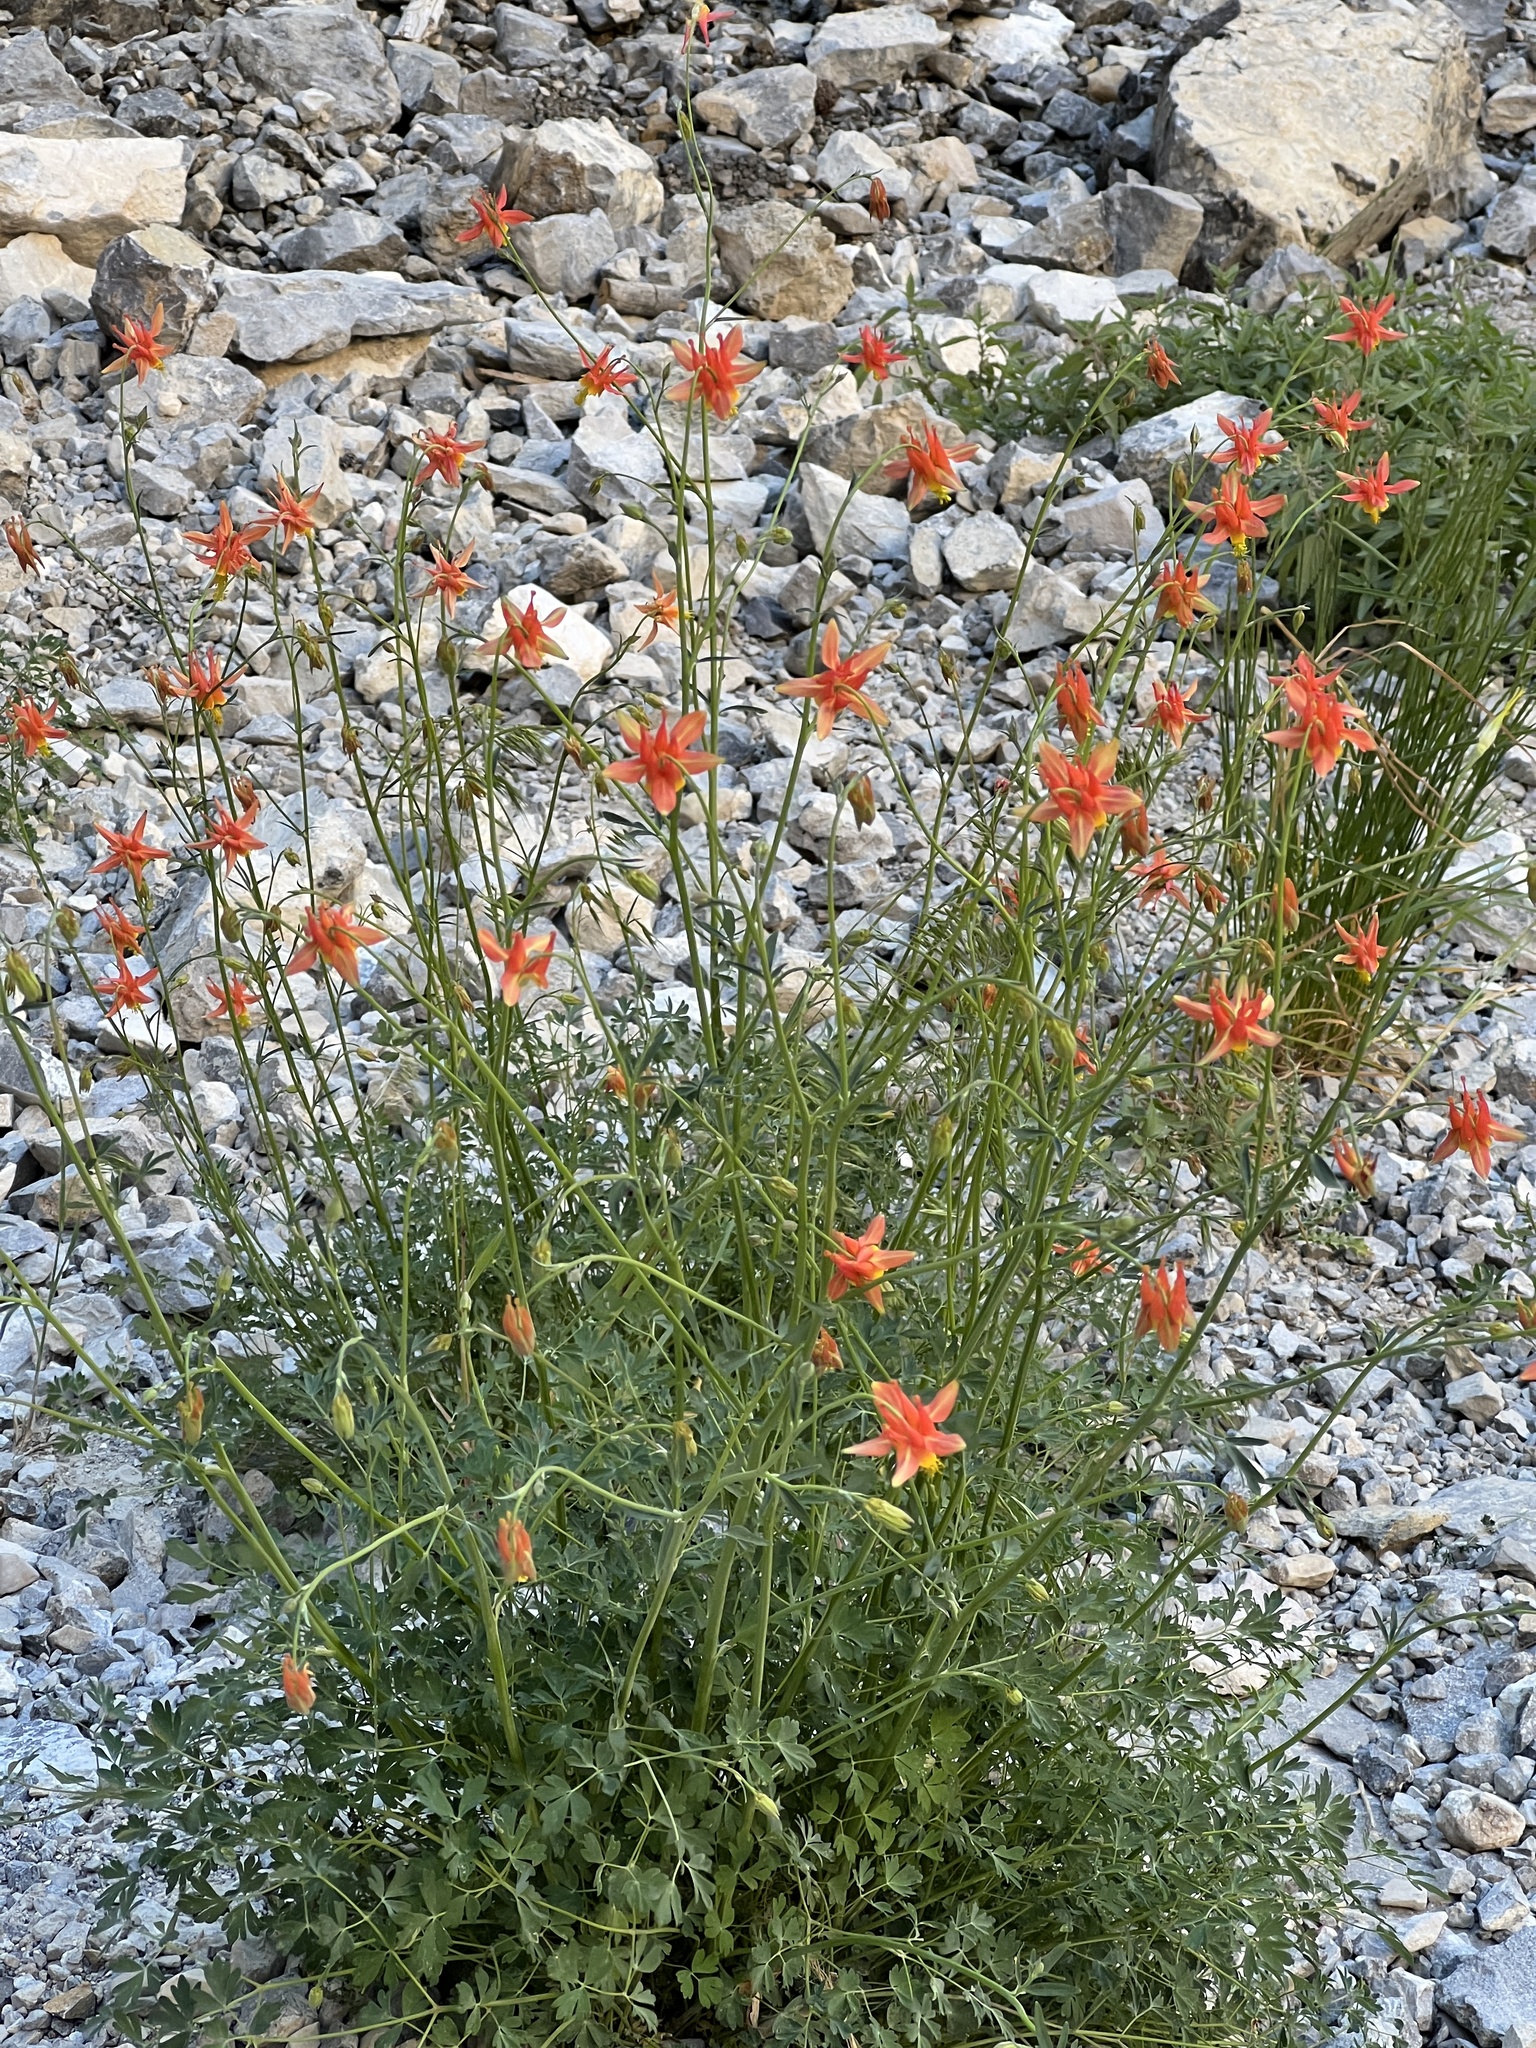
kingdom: Plantae
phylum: Tracheophyta
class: Magnoliopsida
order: Ranunculales
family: Ranunculaceae
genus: Aquilegia
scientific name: Aquilegia formosa
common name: Sitka columbine
